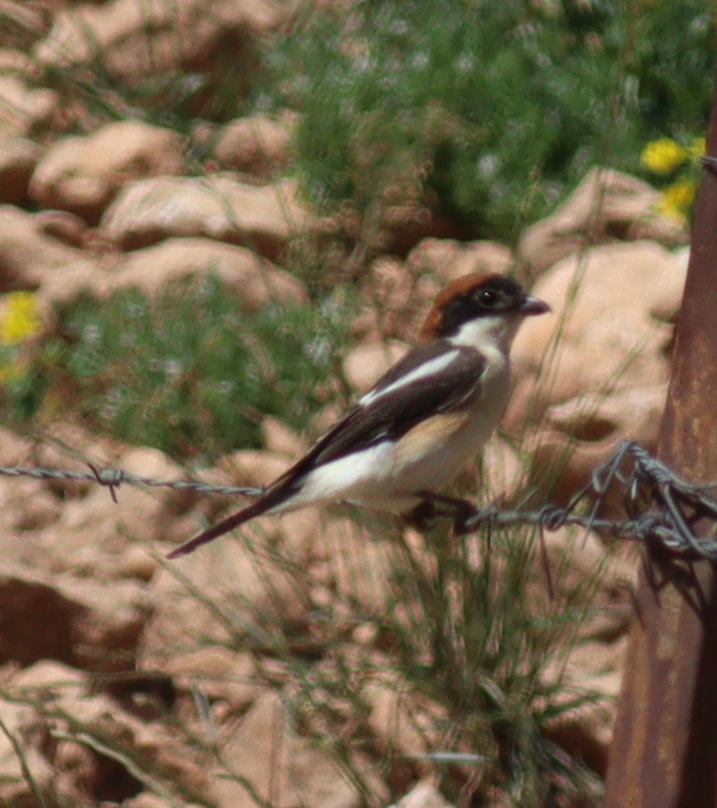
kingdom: Animalia
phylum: Chordata
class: Aves
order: Passeriformes
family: Laniidae
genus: Lanius
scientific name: Lanius senator
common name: Woodchat shrike
